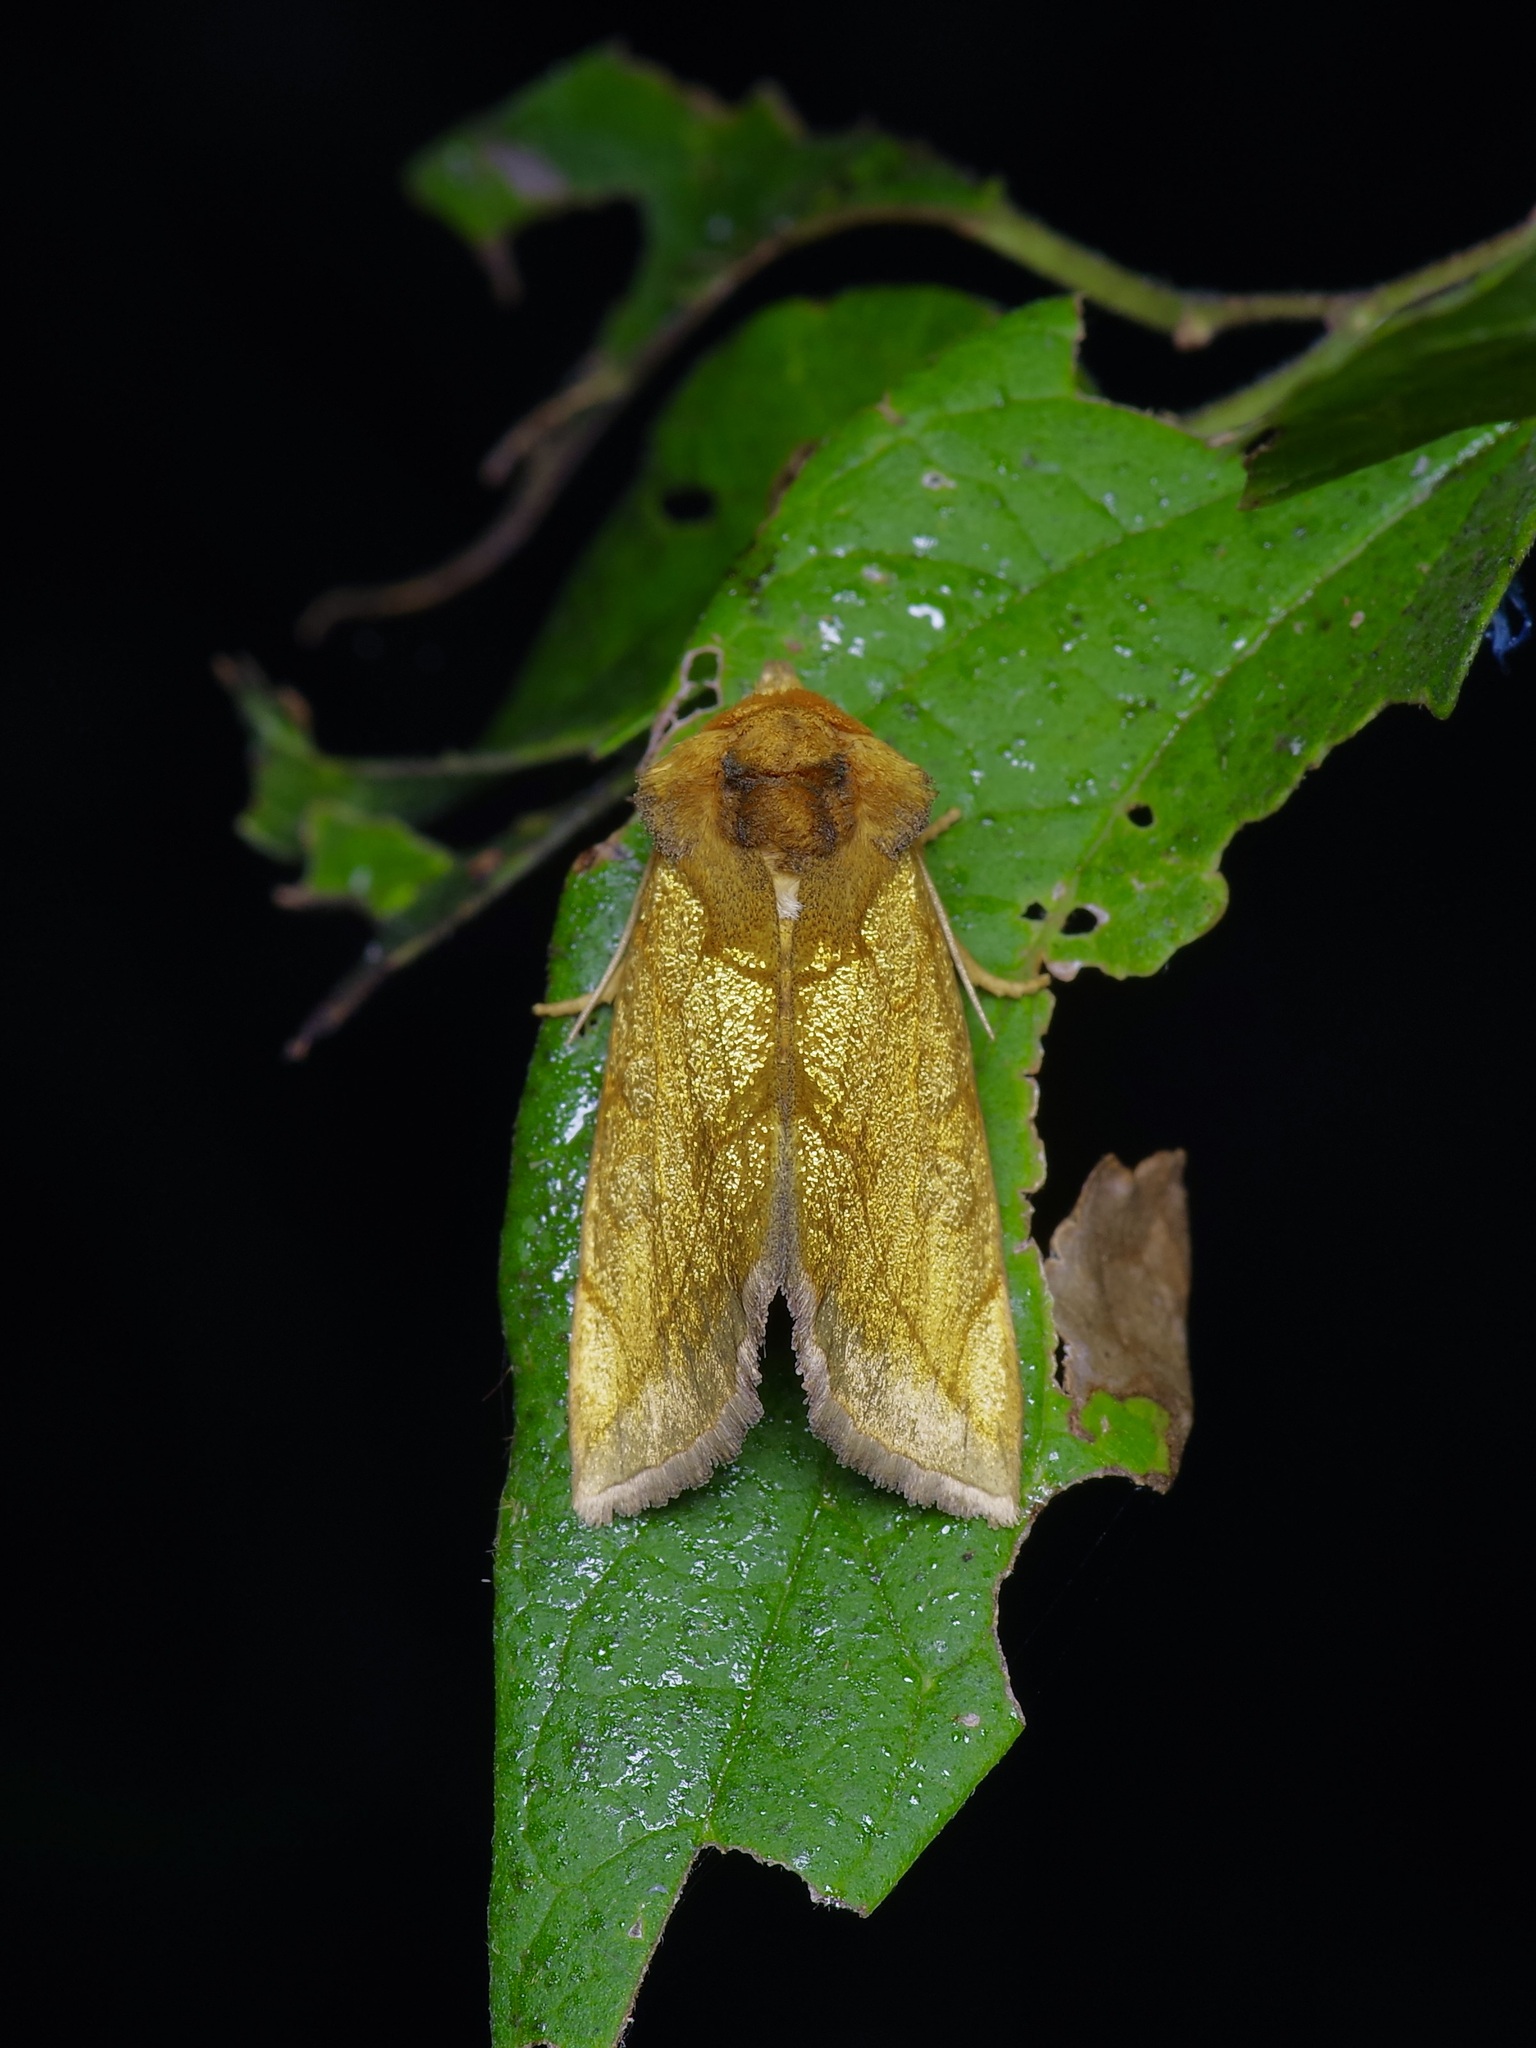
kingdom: Animalia
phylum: Arthropoda
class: Insecta
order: Lepidoptera
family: Noctuidae
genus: Basilodes
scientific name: Basilodes pepita
